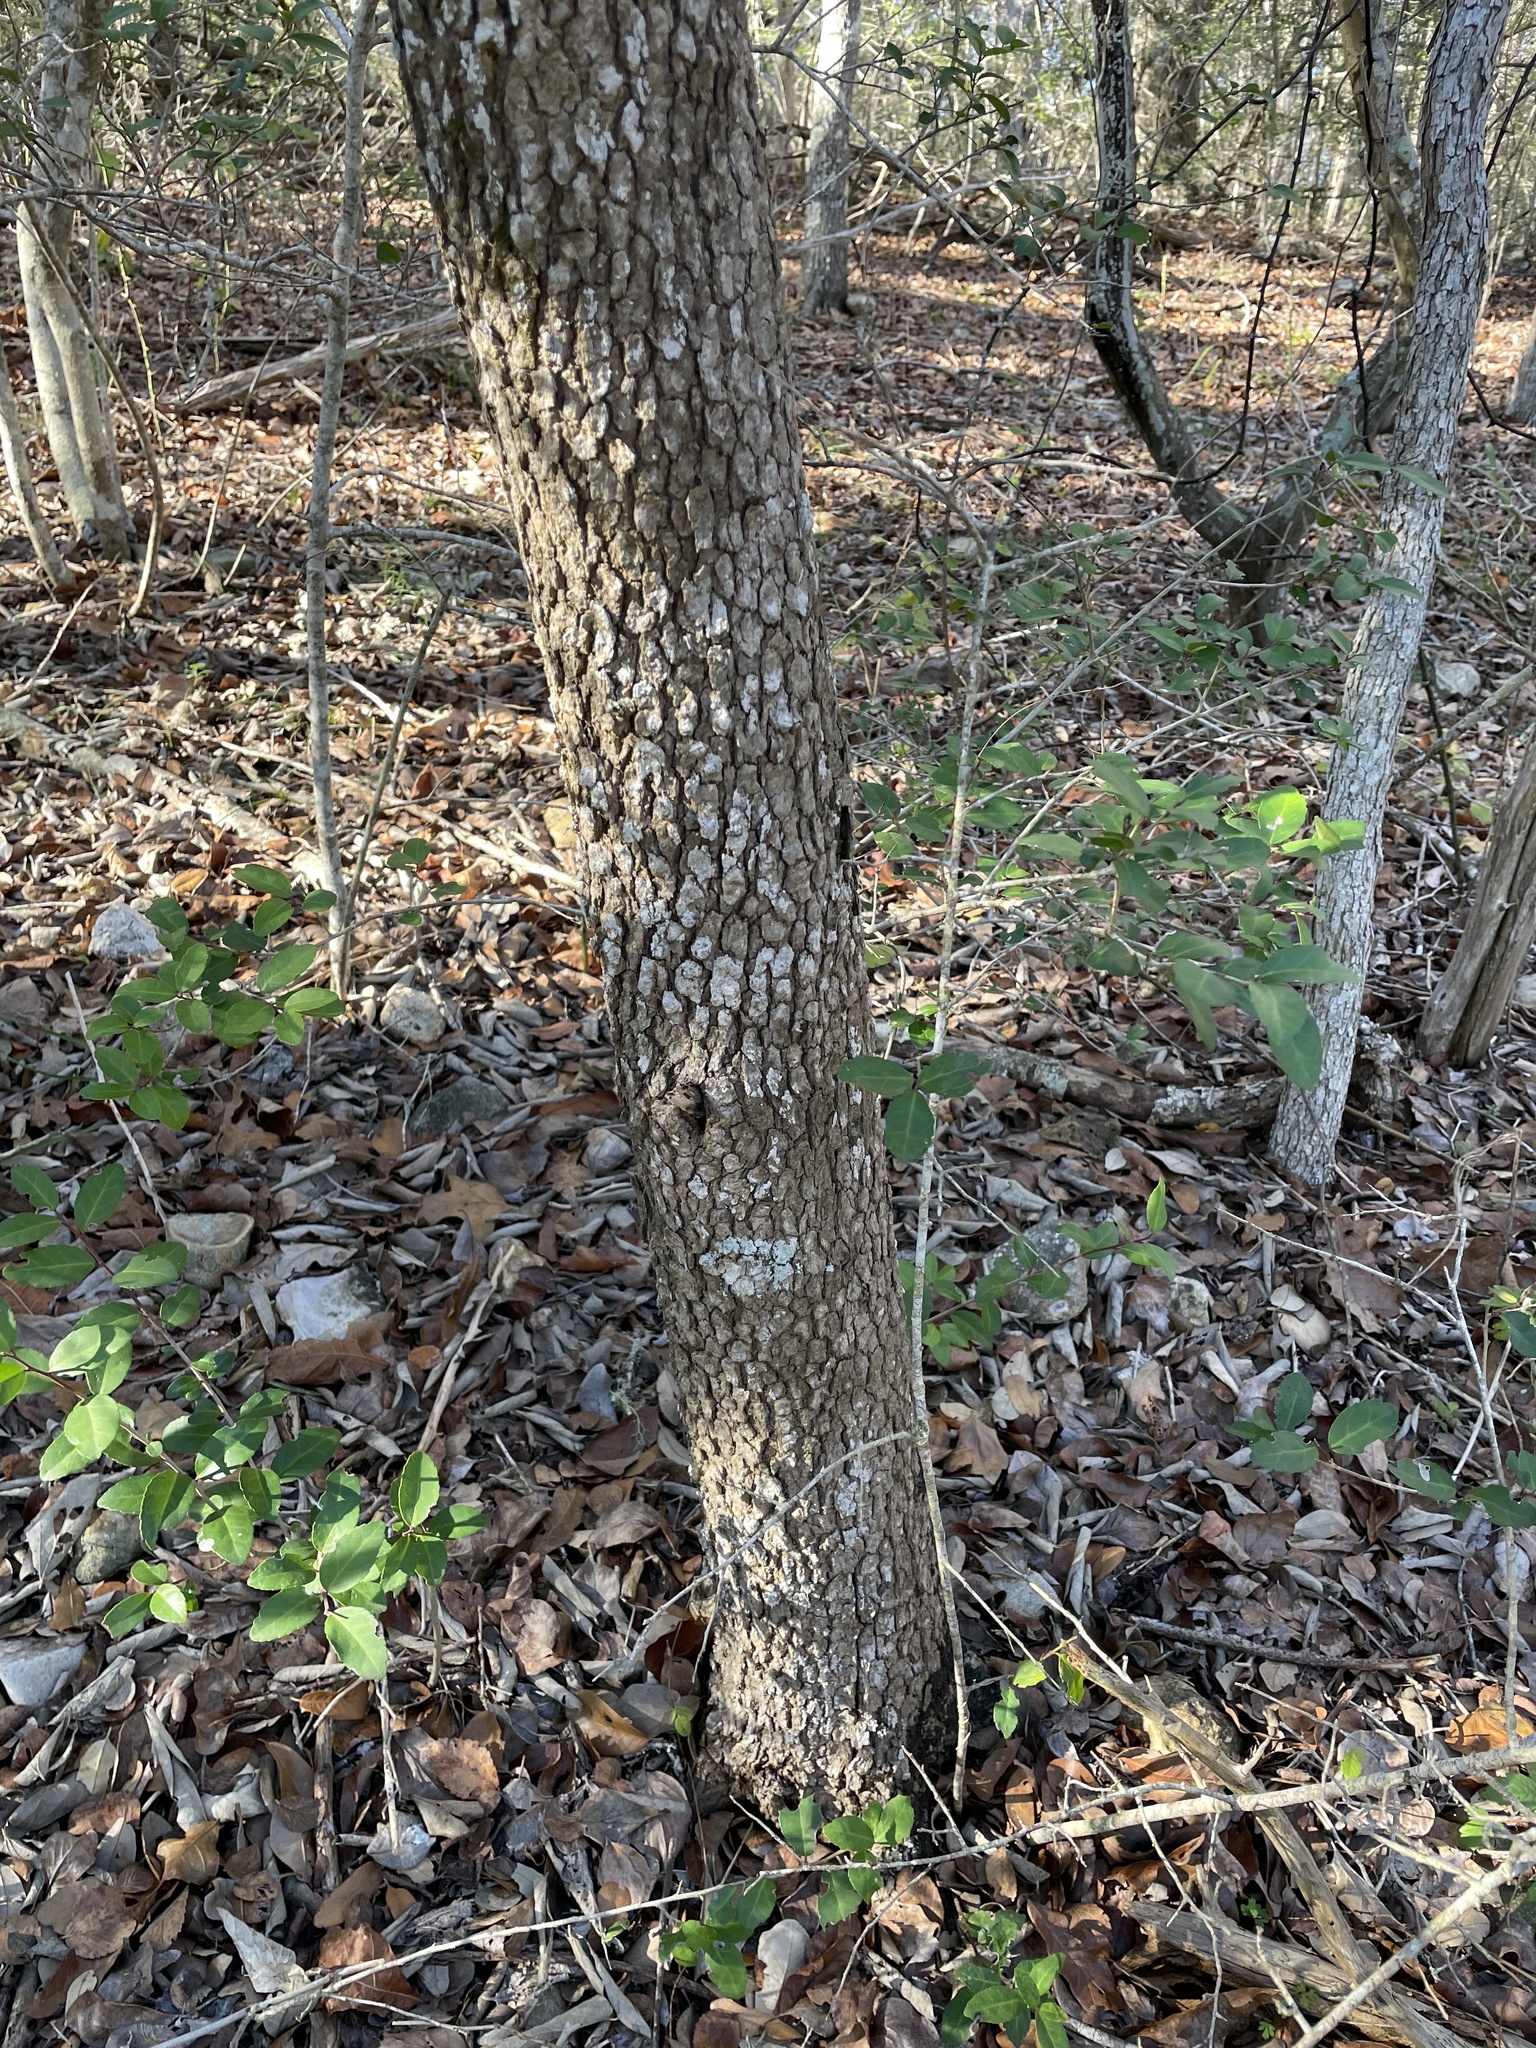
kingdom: Plantae
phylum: Tracheophyta
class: Magnoliopsida
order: Dipsacales
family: Viburnaceae
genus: Viburnum
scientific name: Viburnum rufidulum
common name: Blue haw
